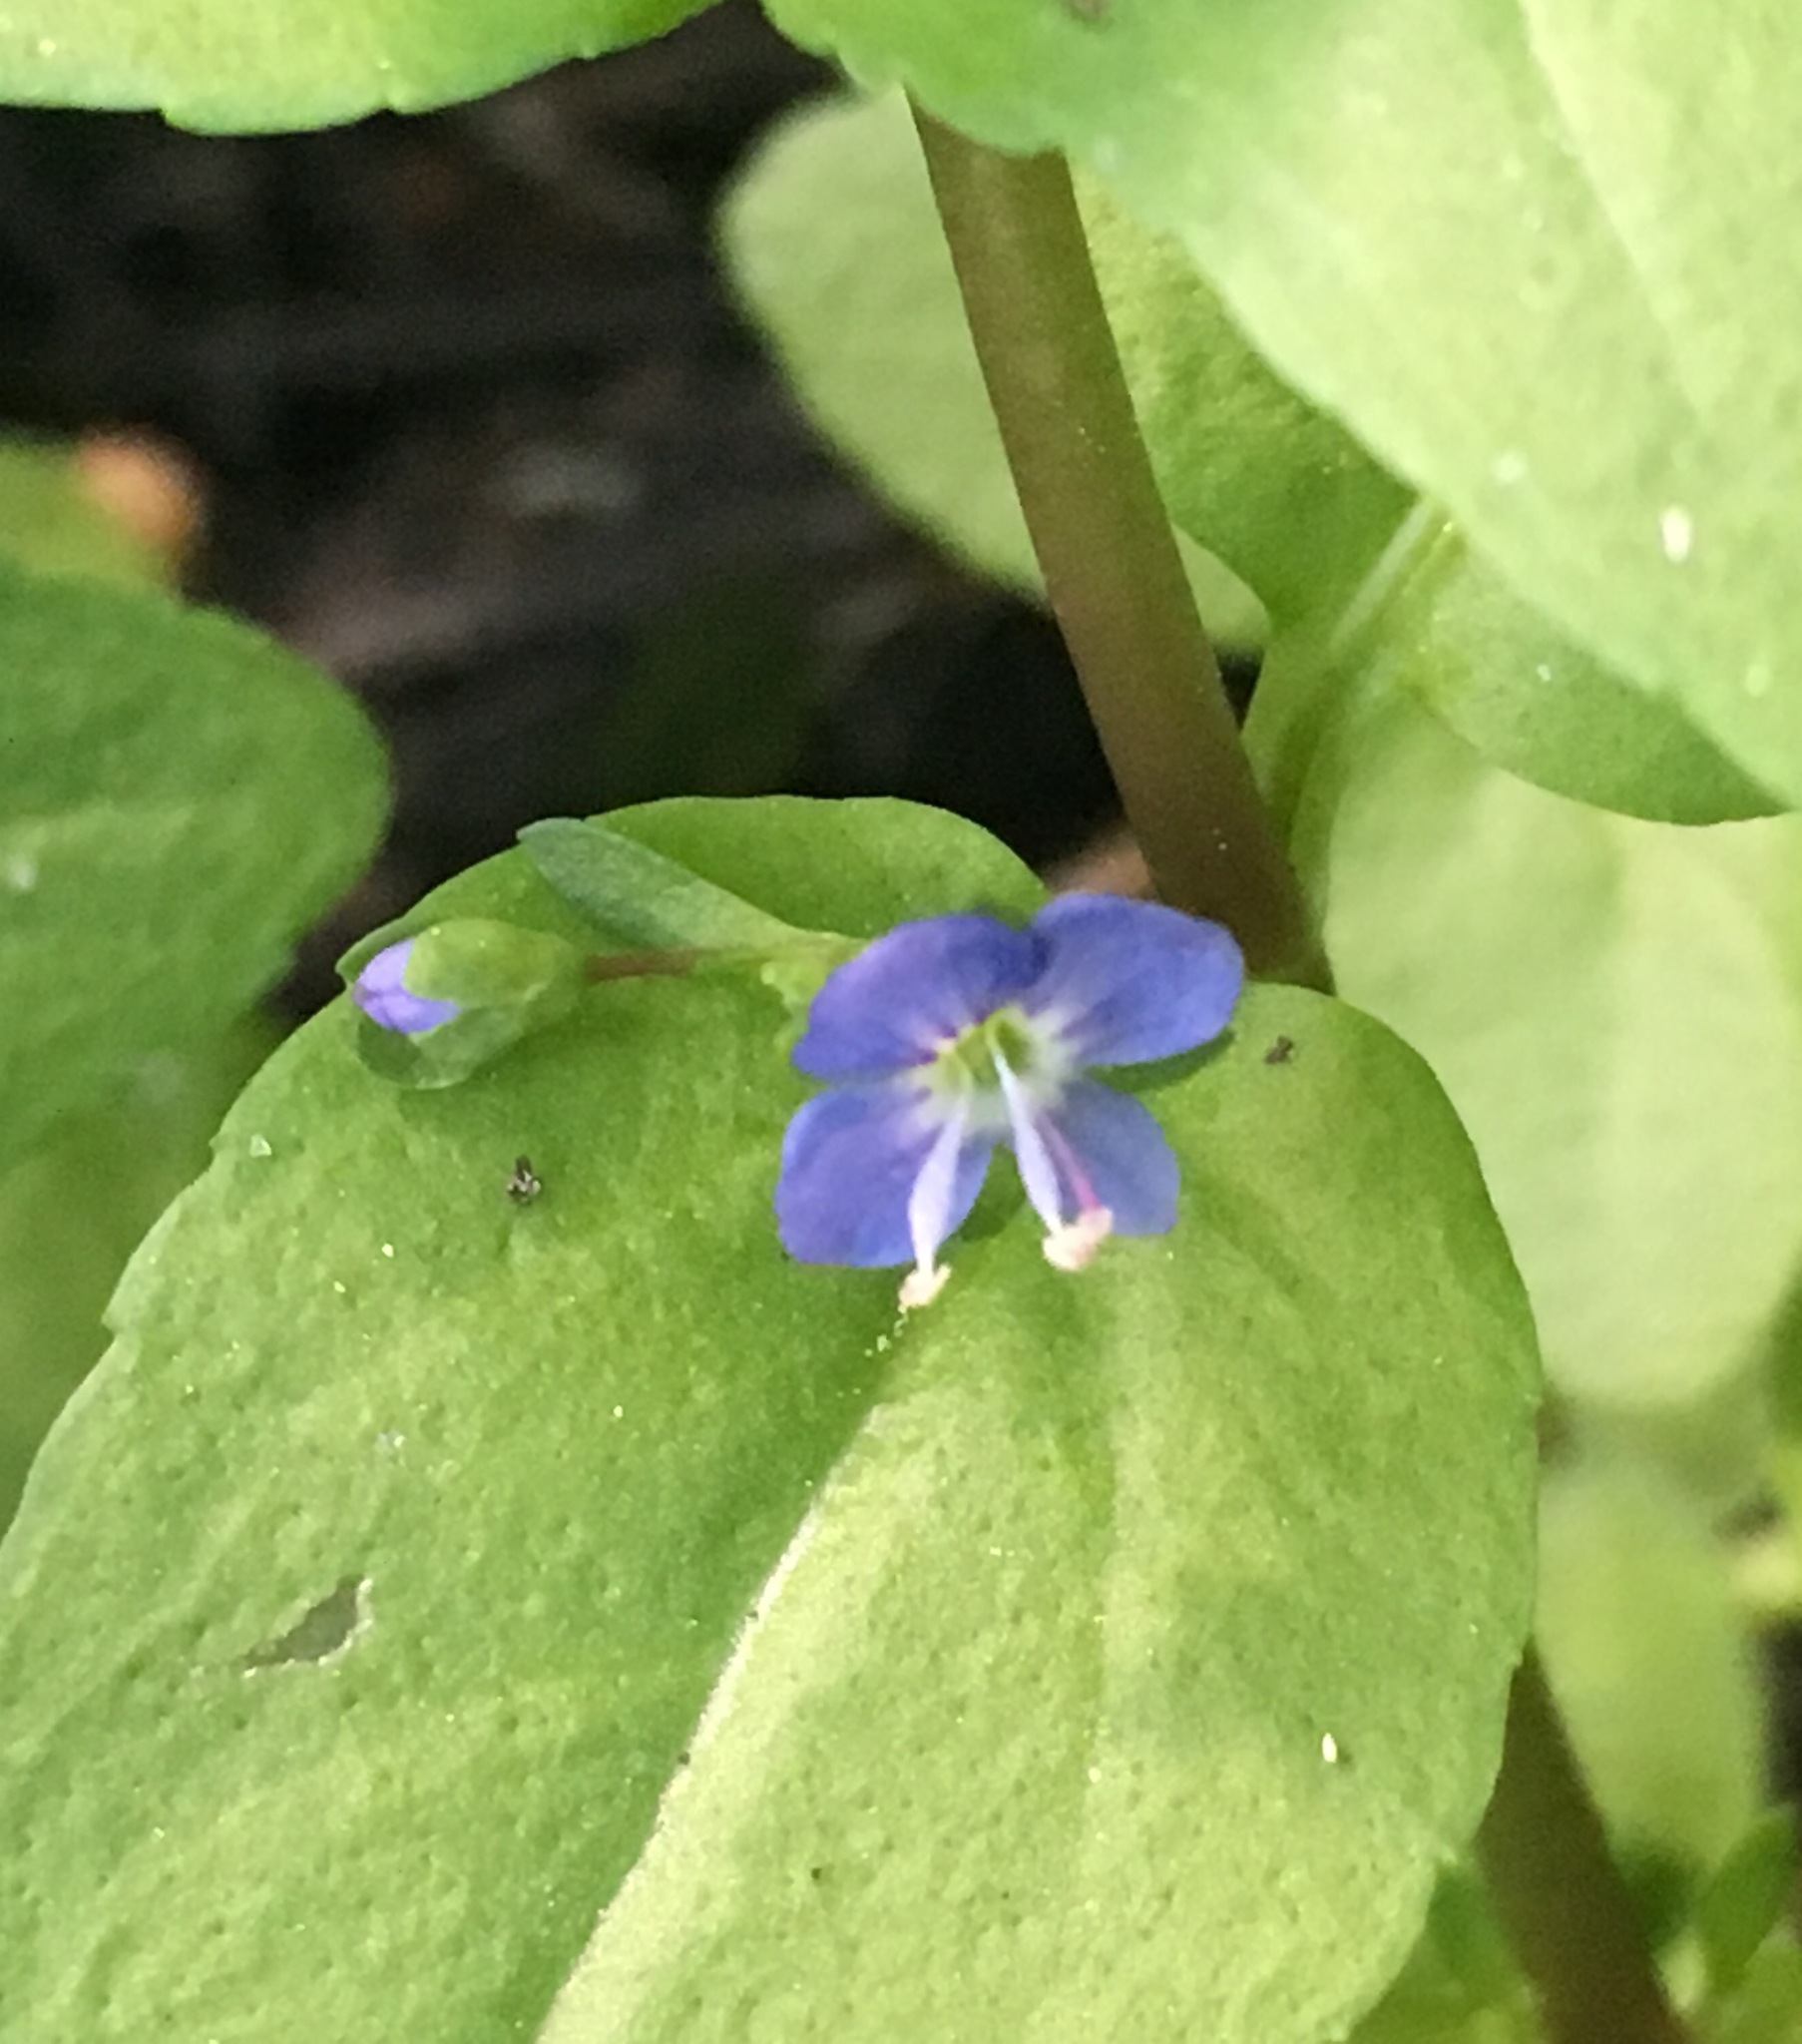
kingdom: Plantae
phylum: Tracheophyta
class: Magnoliopsida
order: Lamiales
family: Plantaginaceae
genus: Veronica
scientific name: Veronica americana
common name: American brooklime
